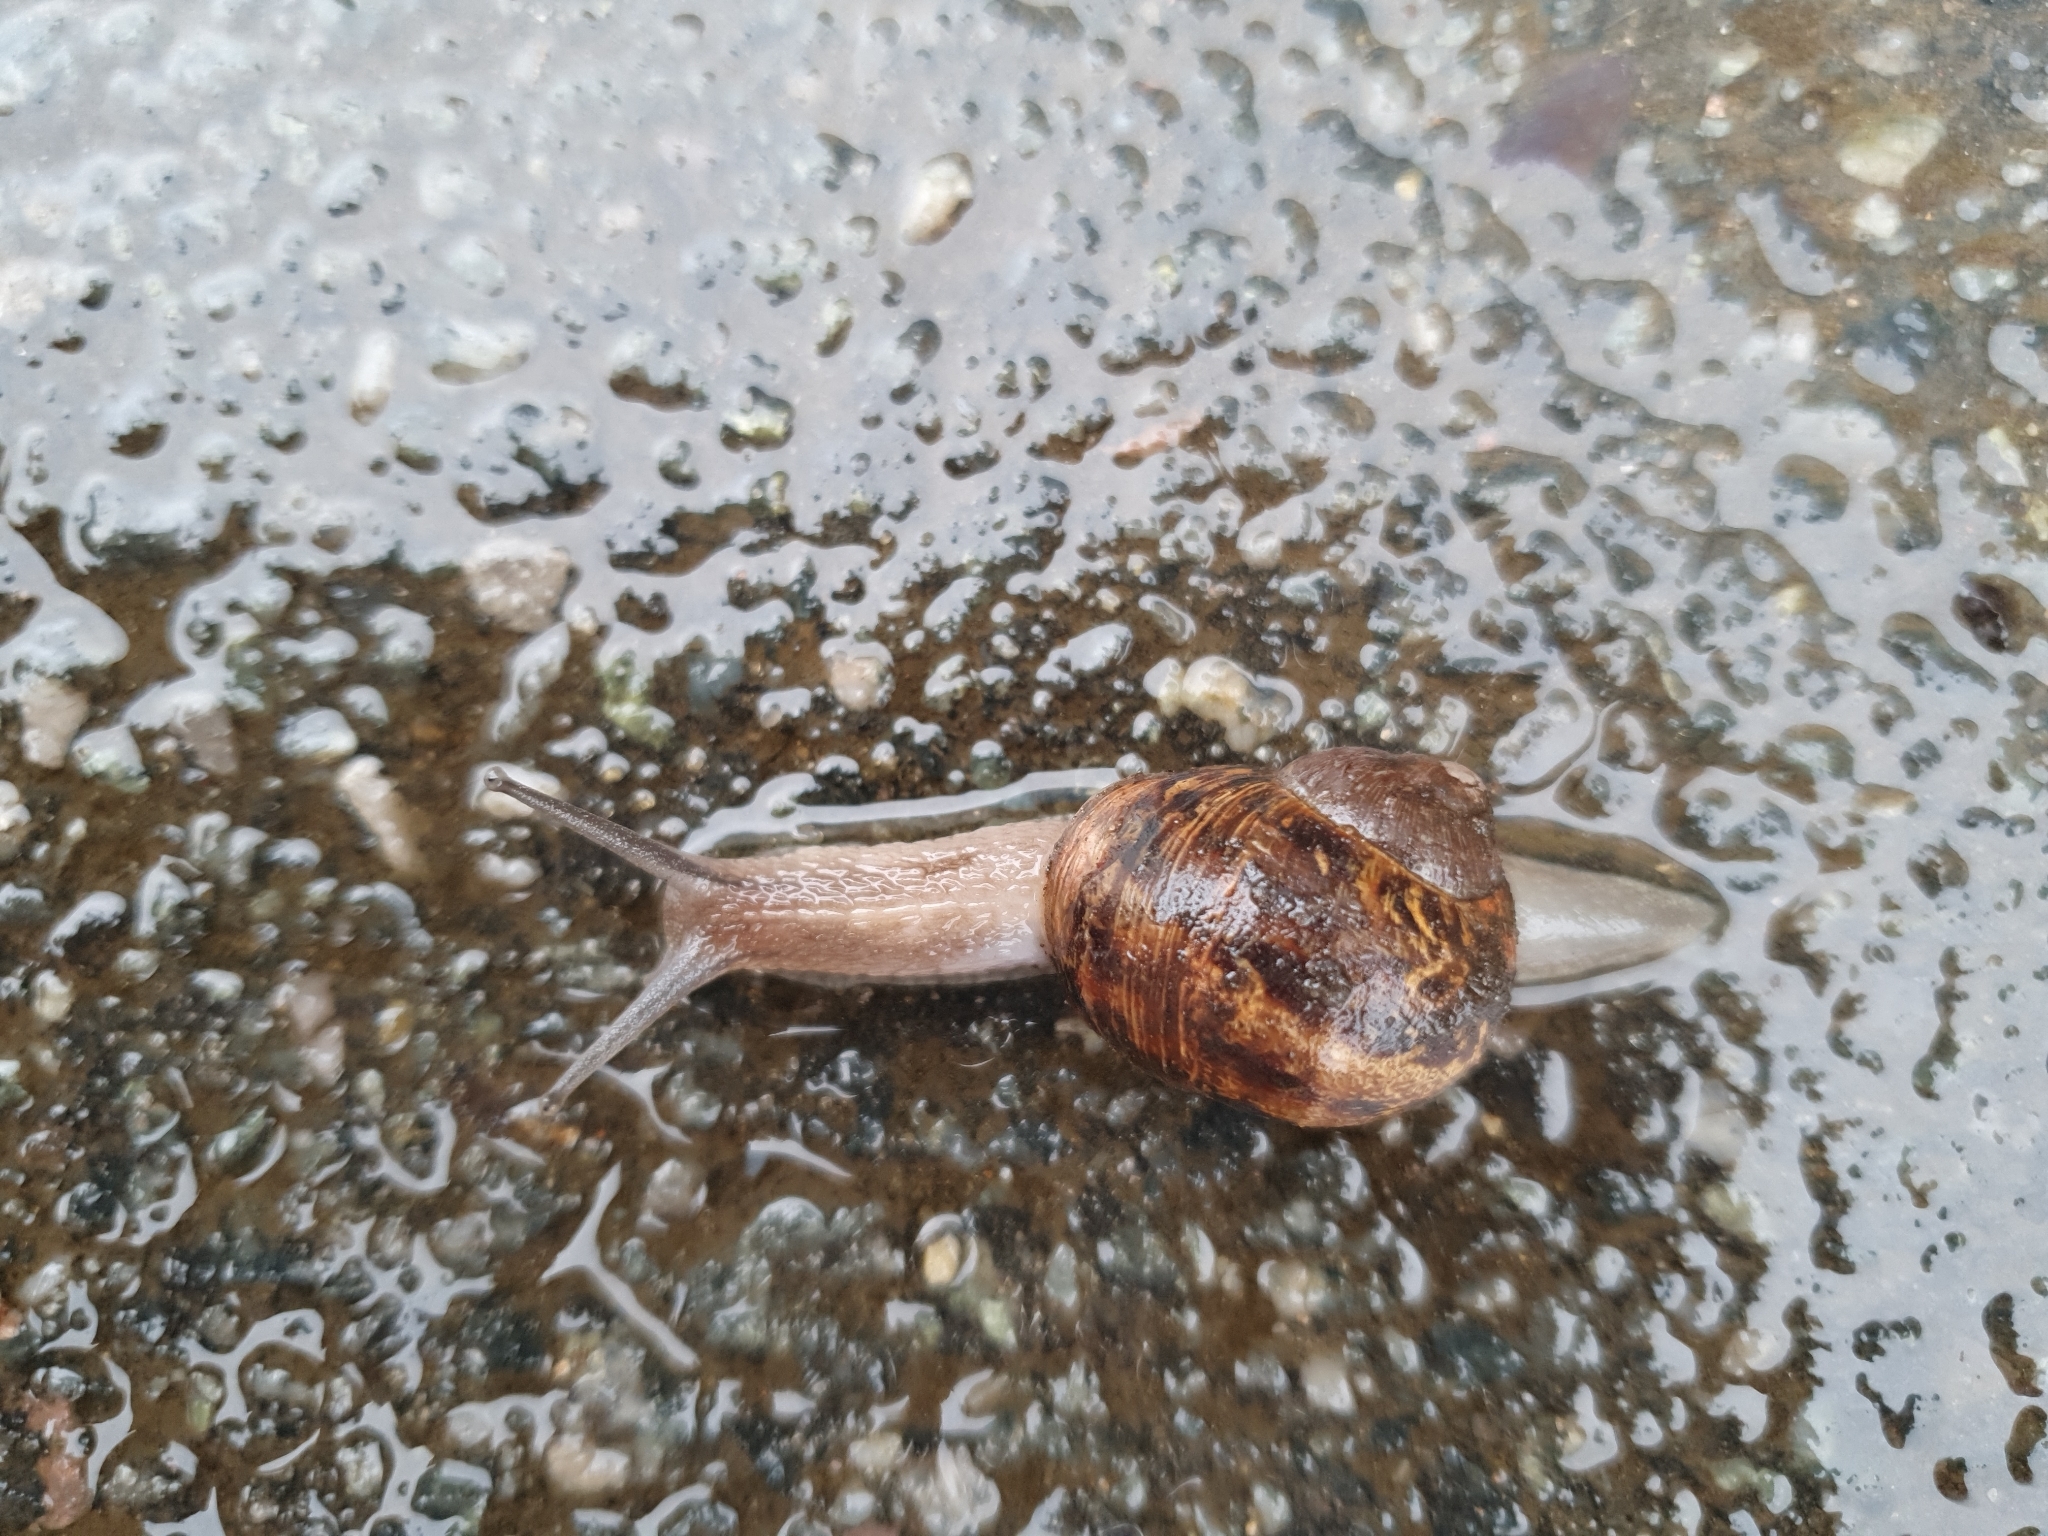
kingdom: Animalia
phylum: Mollusca
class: Gastropoda
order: Stylommatophora
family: Helicidae
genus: Cornu
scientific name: Cornu aspersum
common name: Brown garden snail
